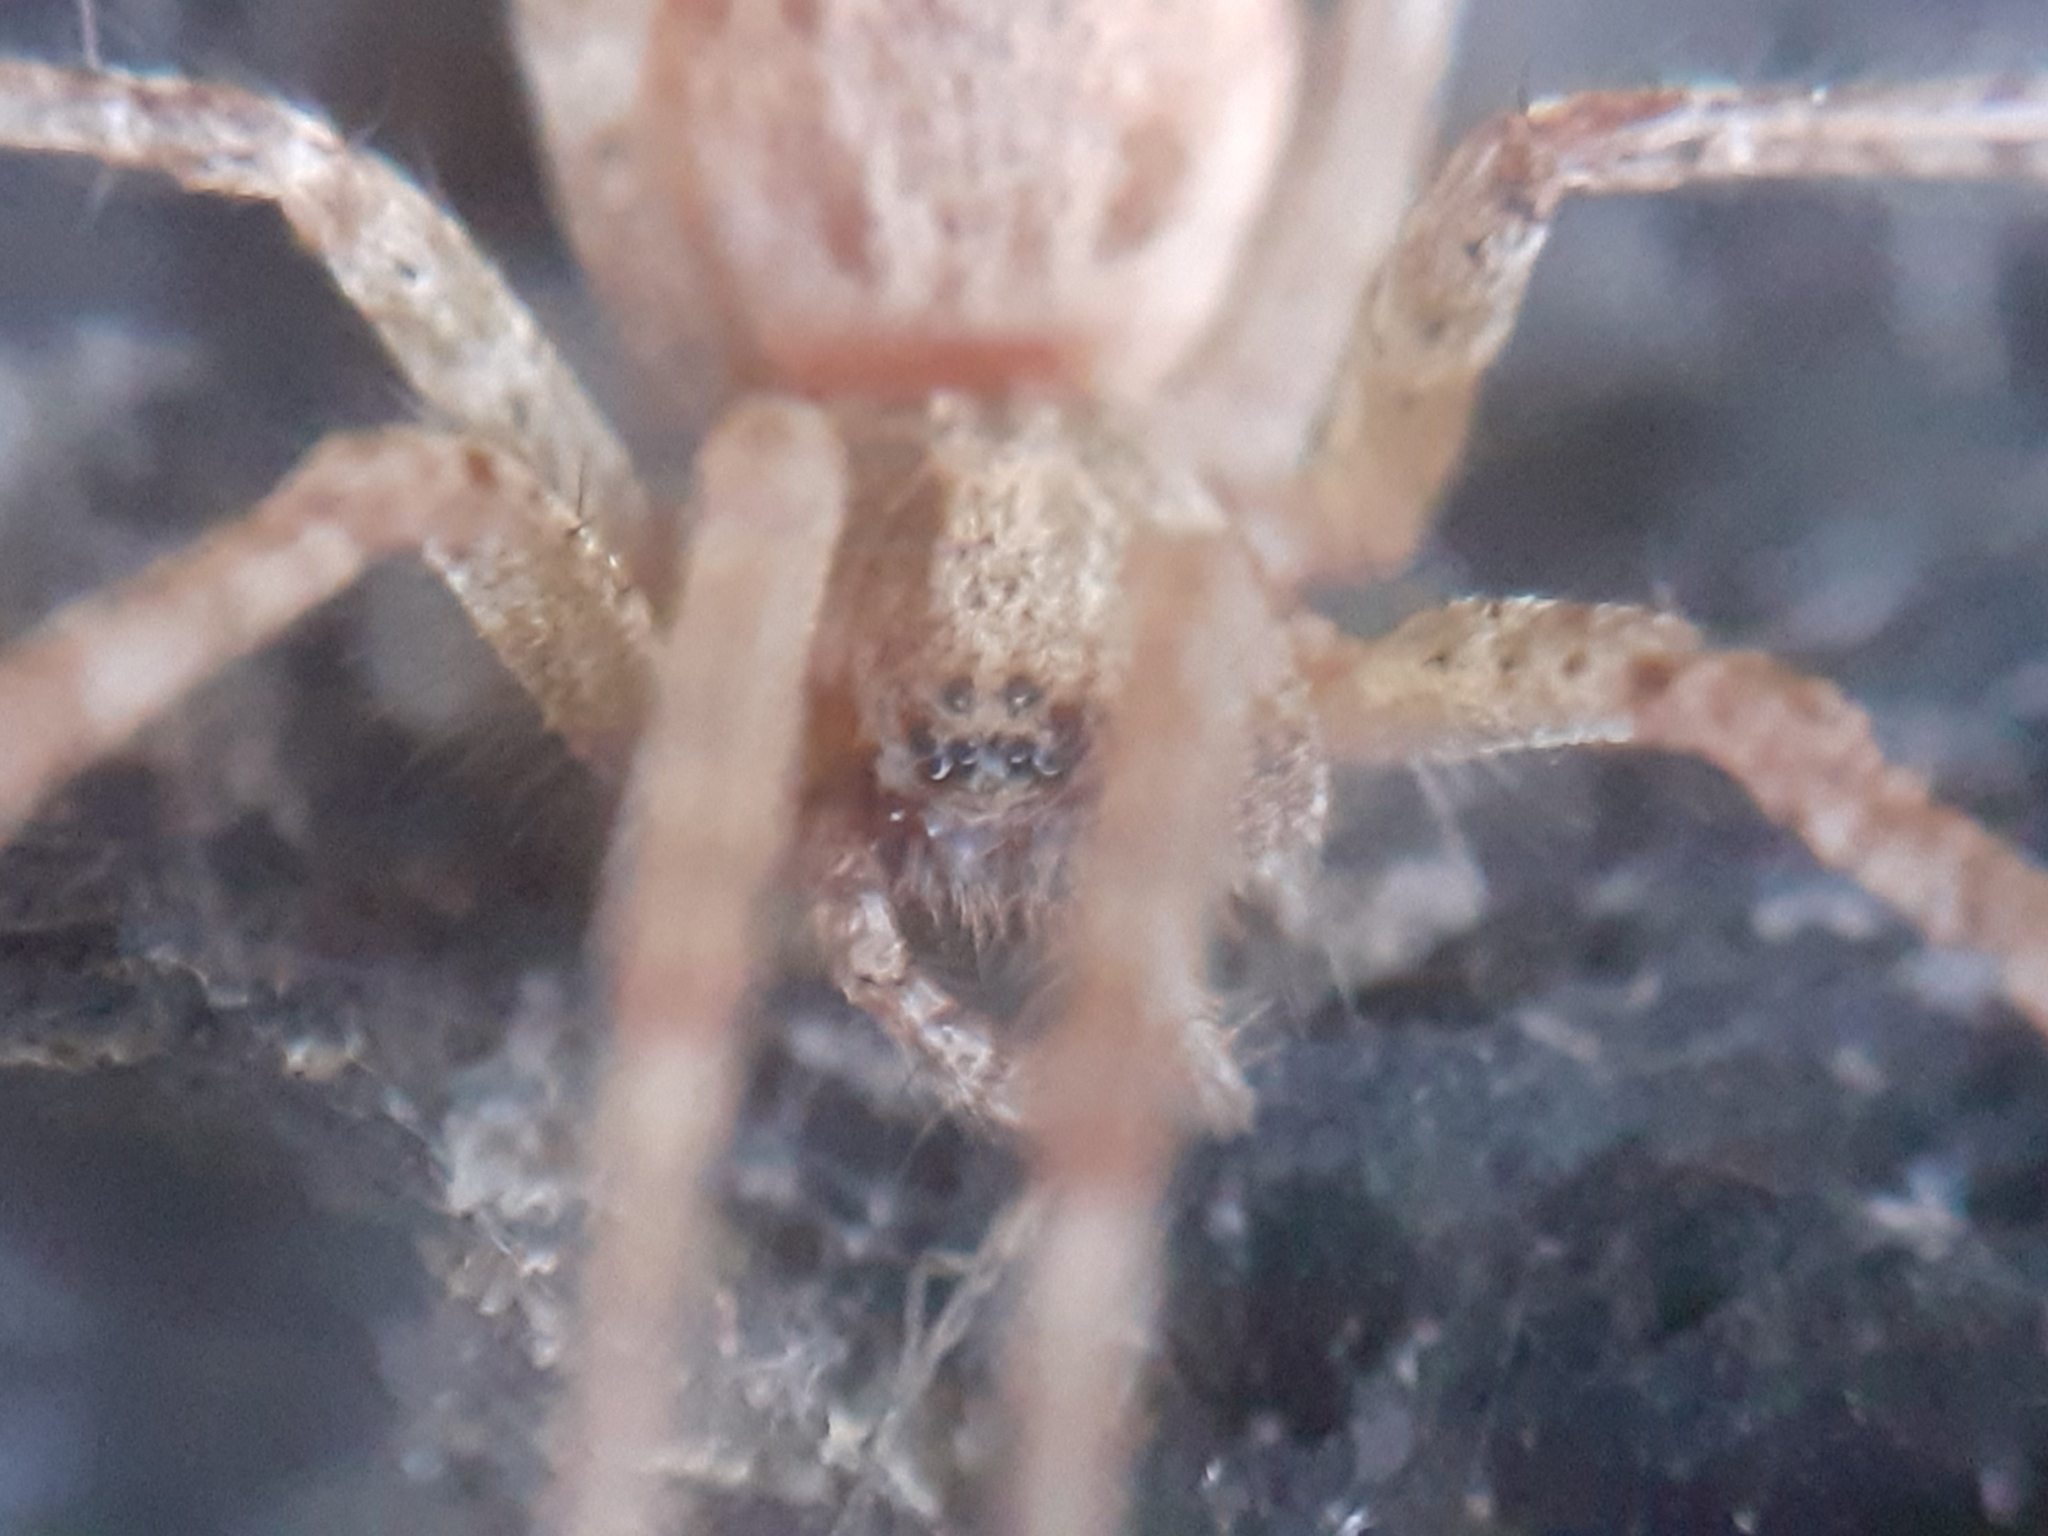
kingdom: Animalia
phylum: Arthropoda
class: Arachnida
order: Araneae
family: Agelenidae
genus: Allagelena
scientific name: Allagelena gracilens
